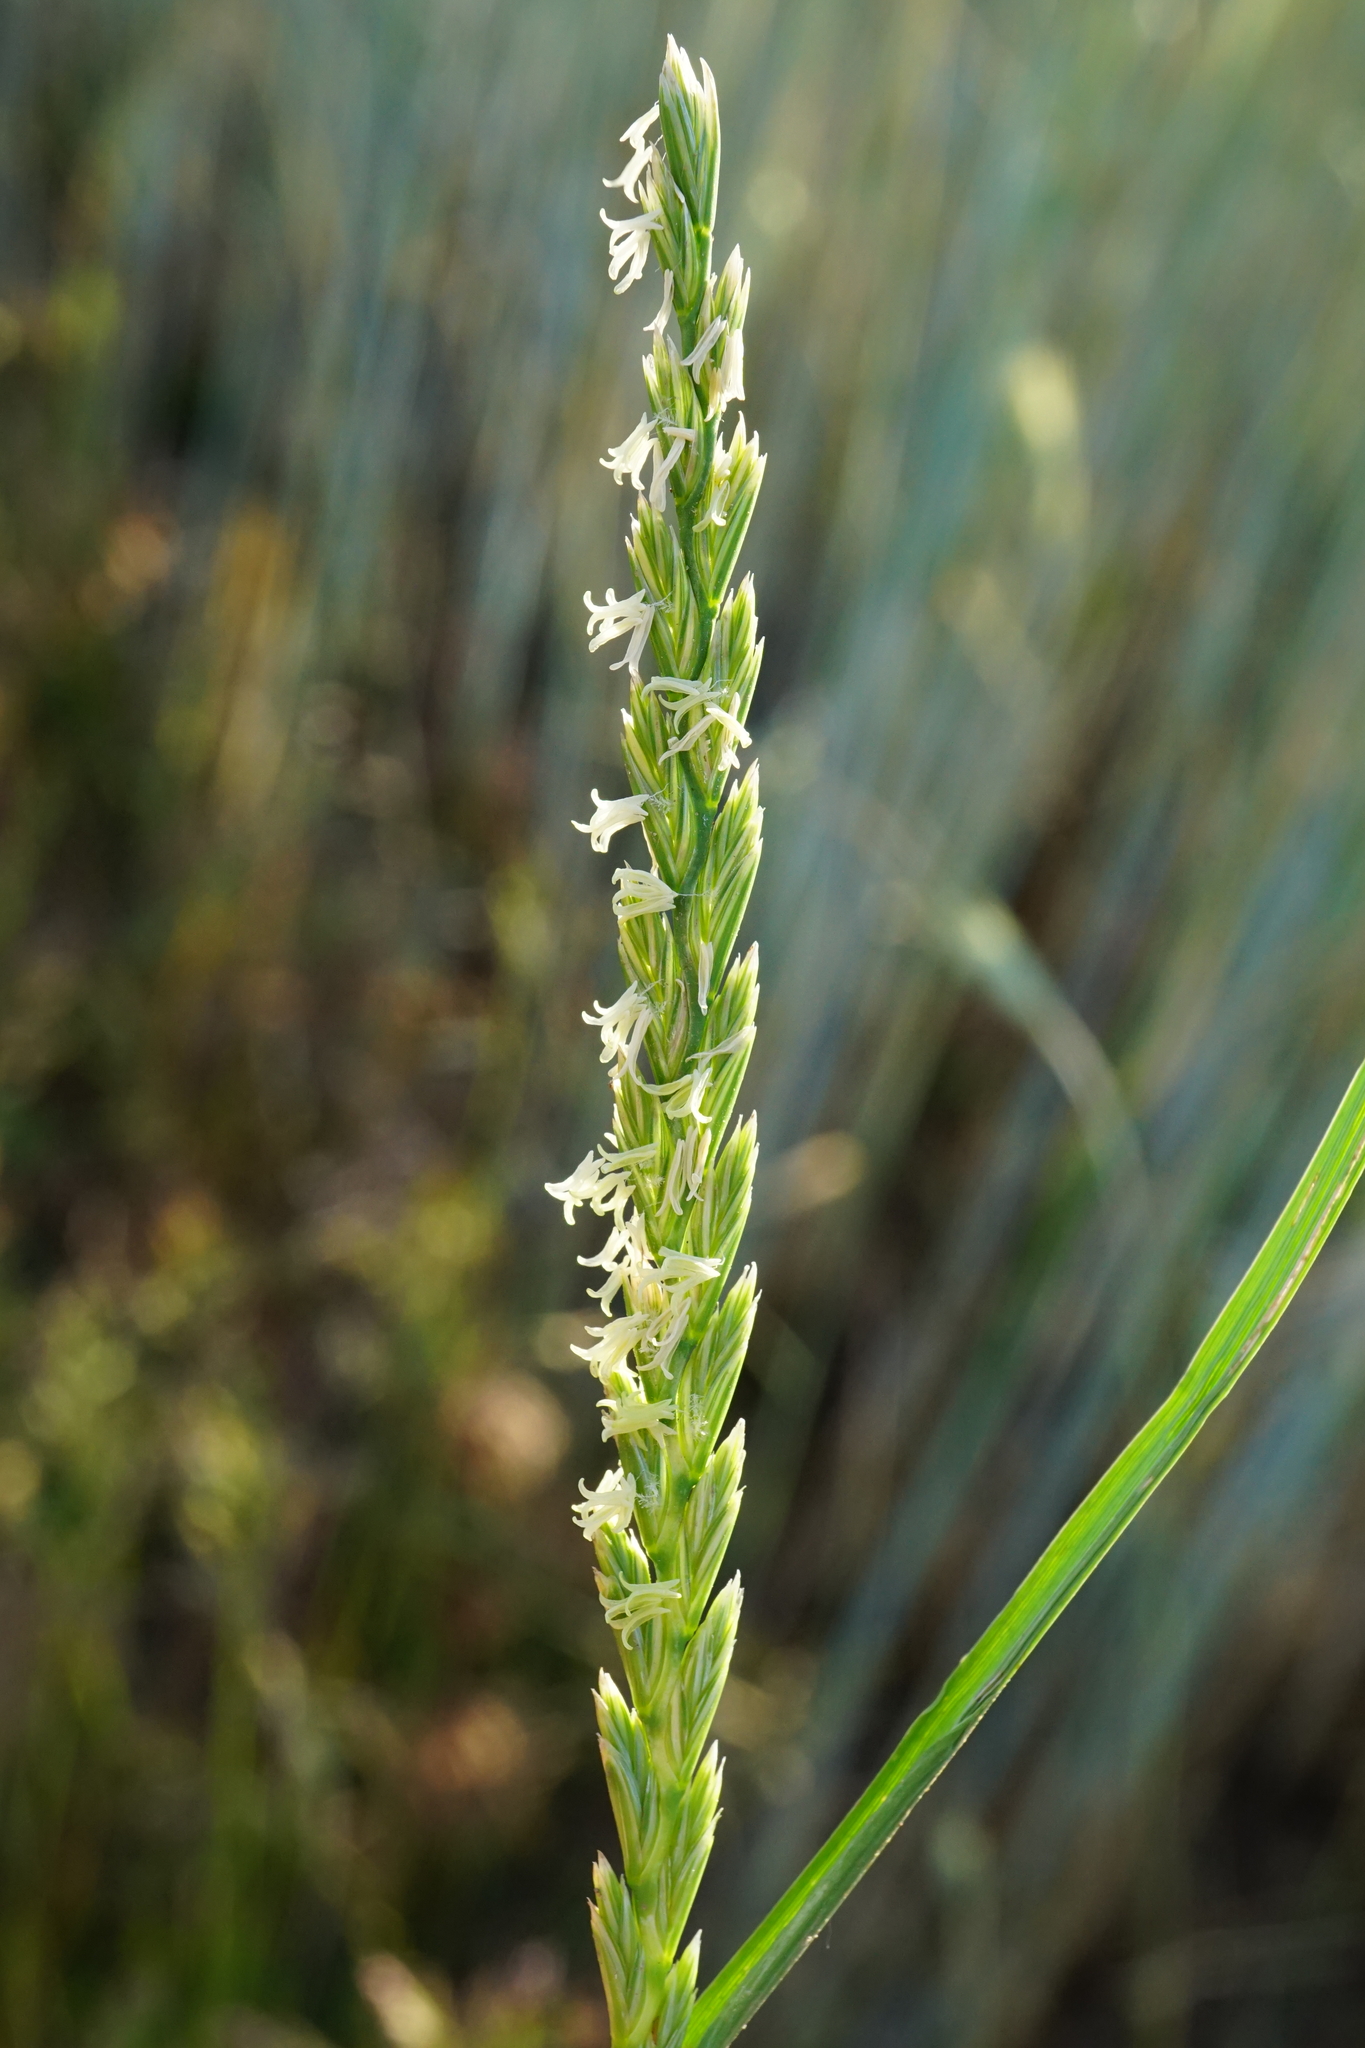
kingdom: Plantae
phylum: Tracheophyta
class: Liliopsida
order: Poales
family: Poaceae
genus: Lolium
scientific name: Lolium perenne
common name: Perennial ryegrass
